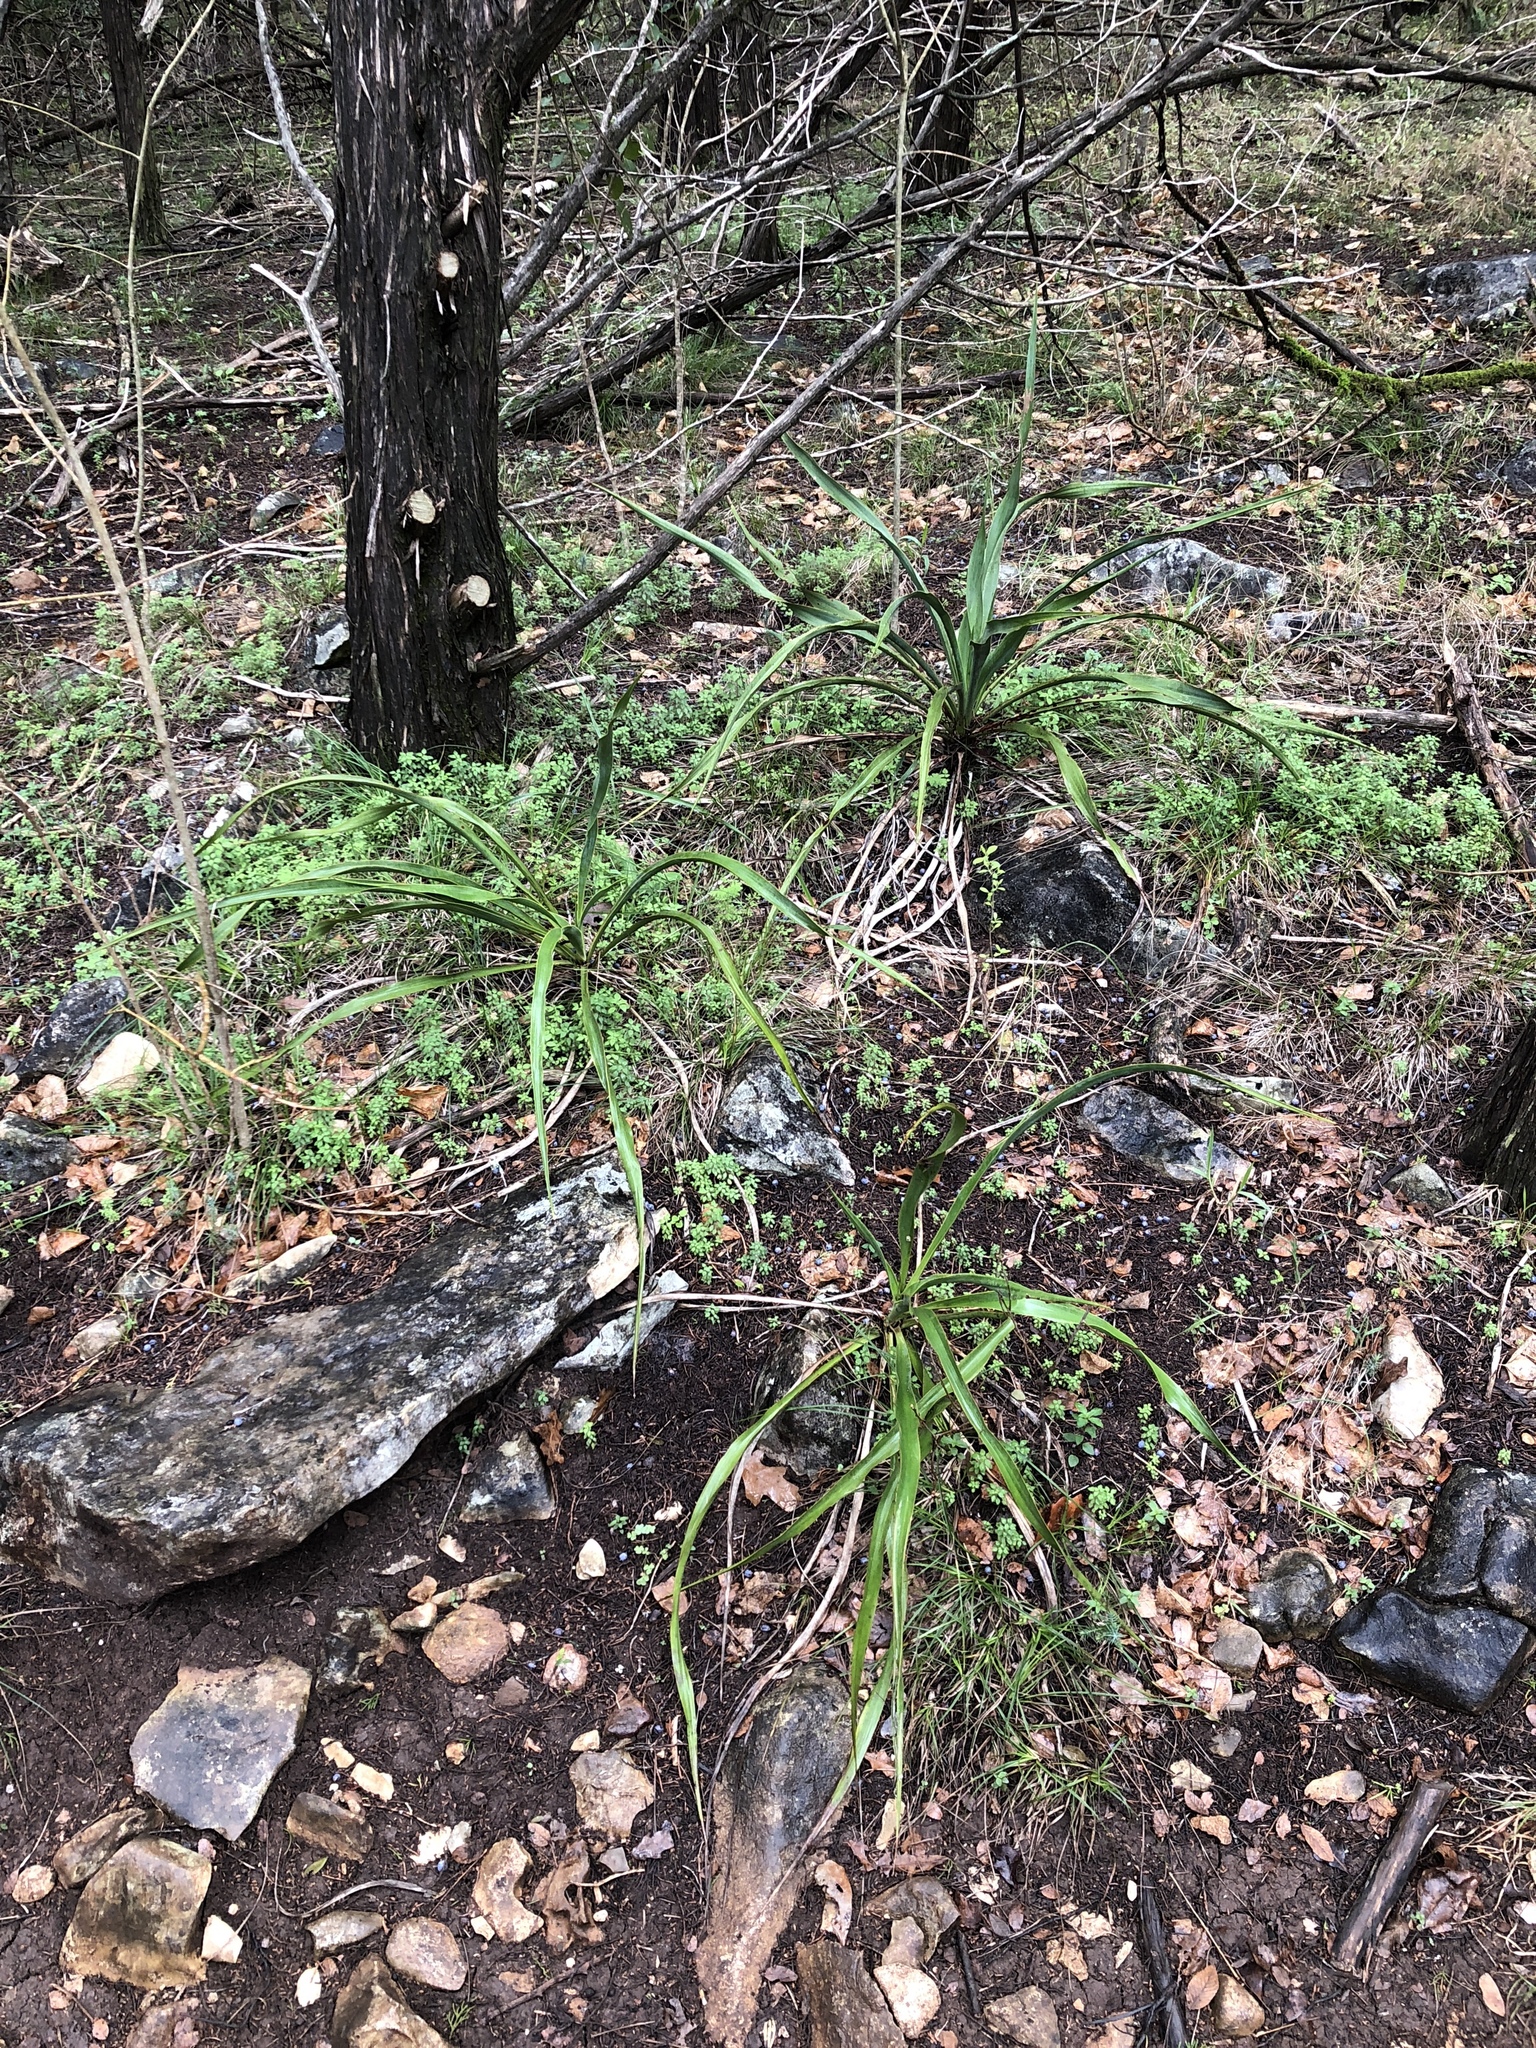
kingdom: Plantae
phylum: Tracheophyta
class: Liliopsida
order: Asparagales
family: Asparagaceae
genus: Yucca
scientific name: Yucca rupicola
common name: Twisted-leaf spanish-dagger
